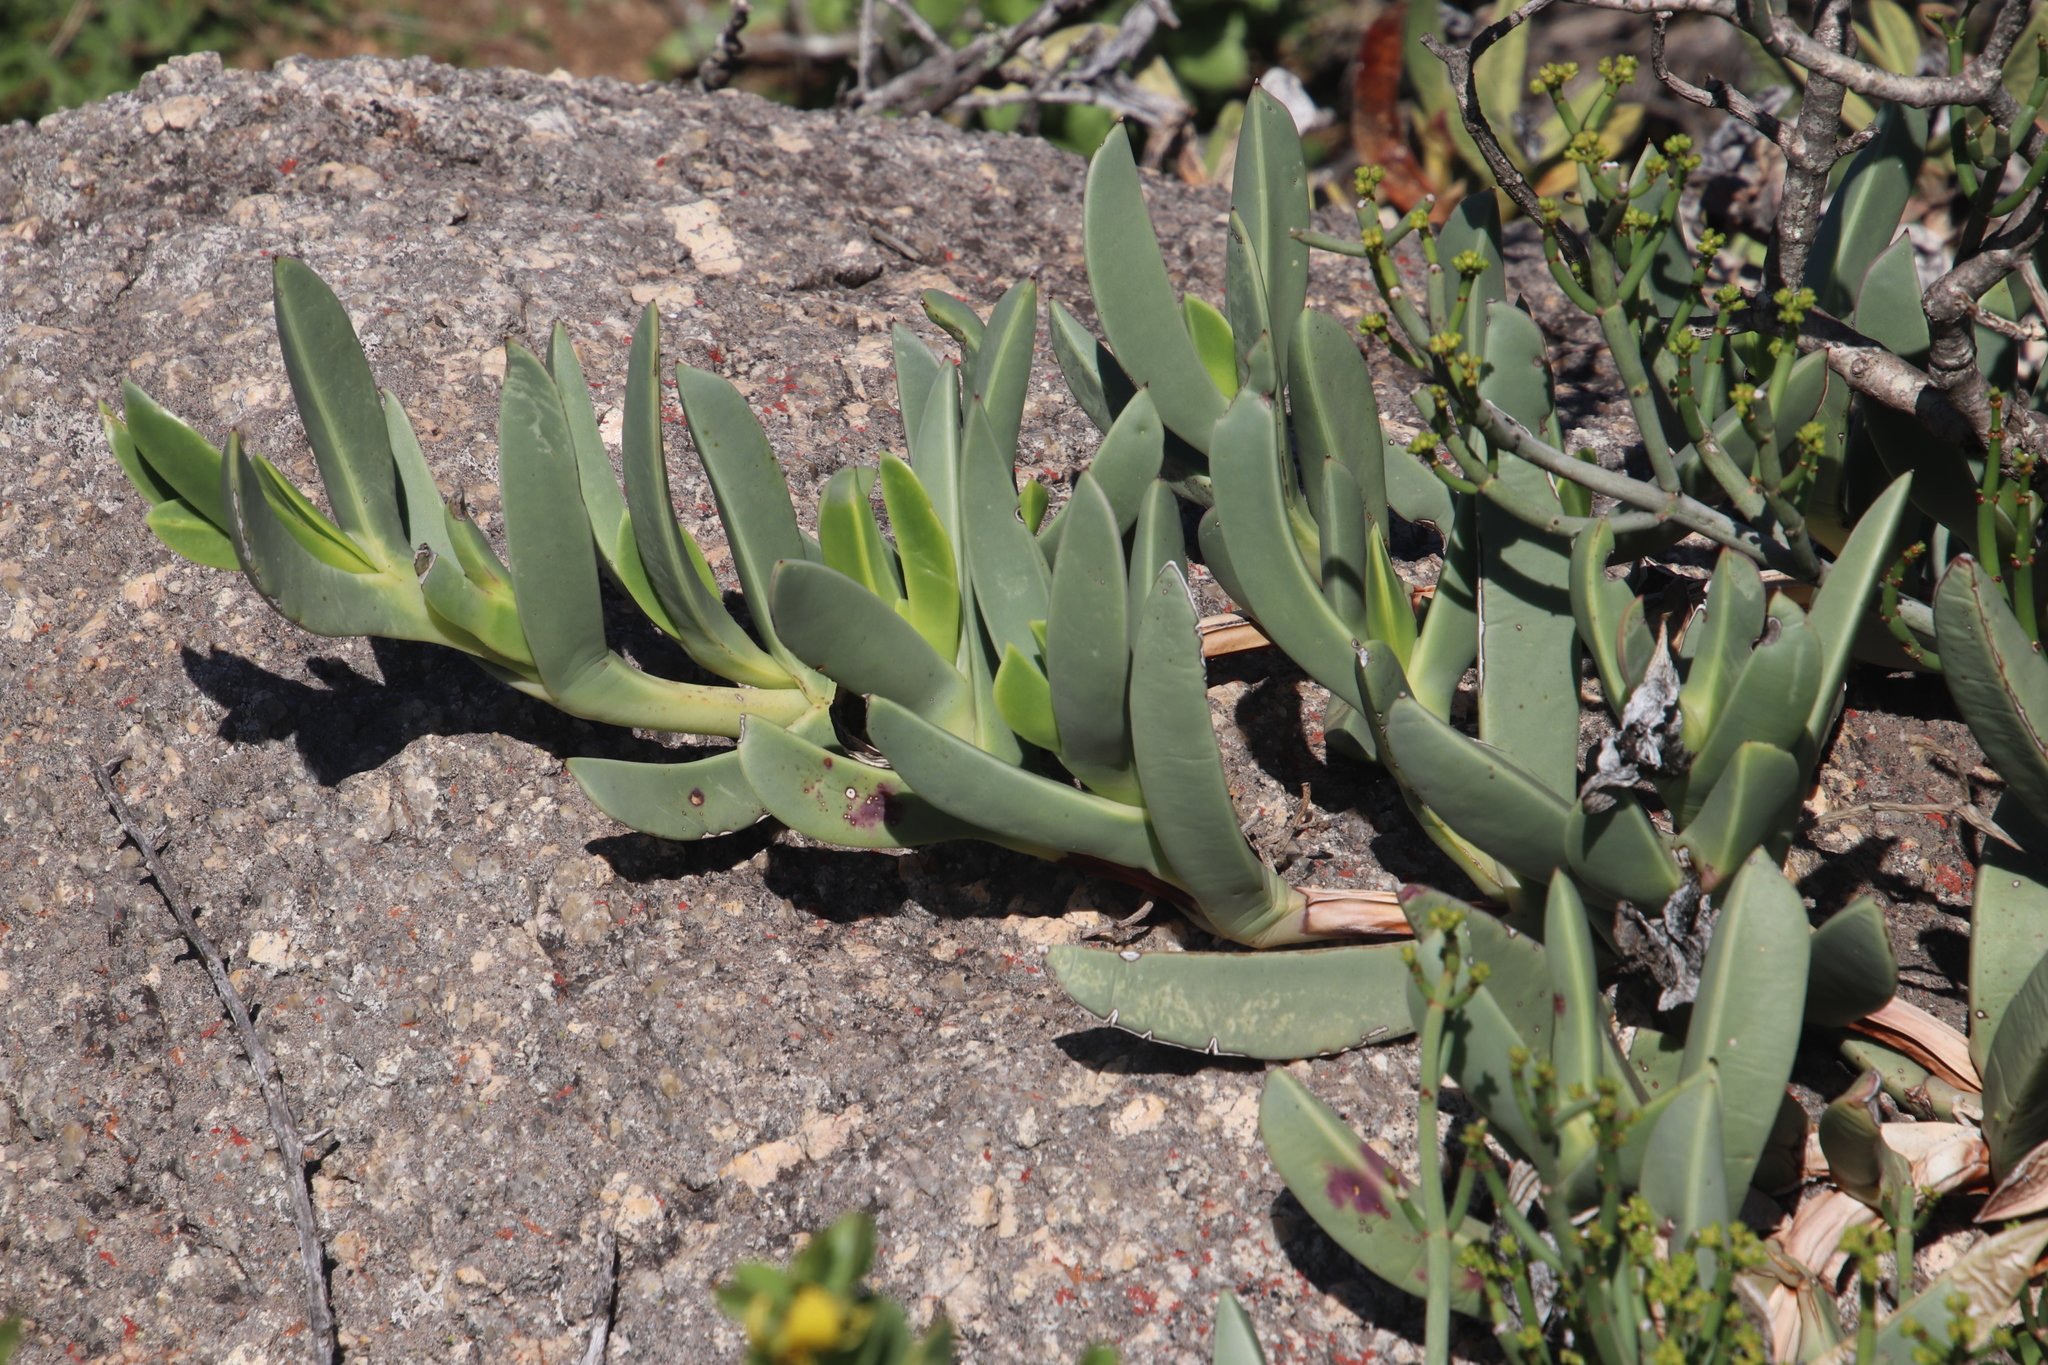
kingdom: Plantae
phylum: Tracheophyta
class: Magnoliopsida
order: Caryophyllales
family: Aizoaceae
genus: Carpobrotus
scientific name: Carpobrotus quadrifidus
